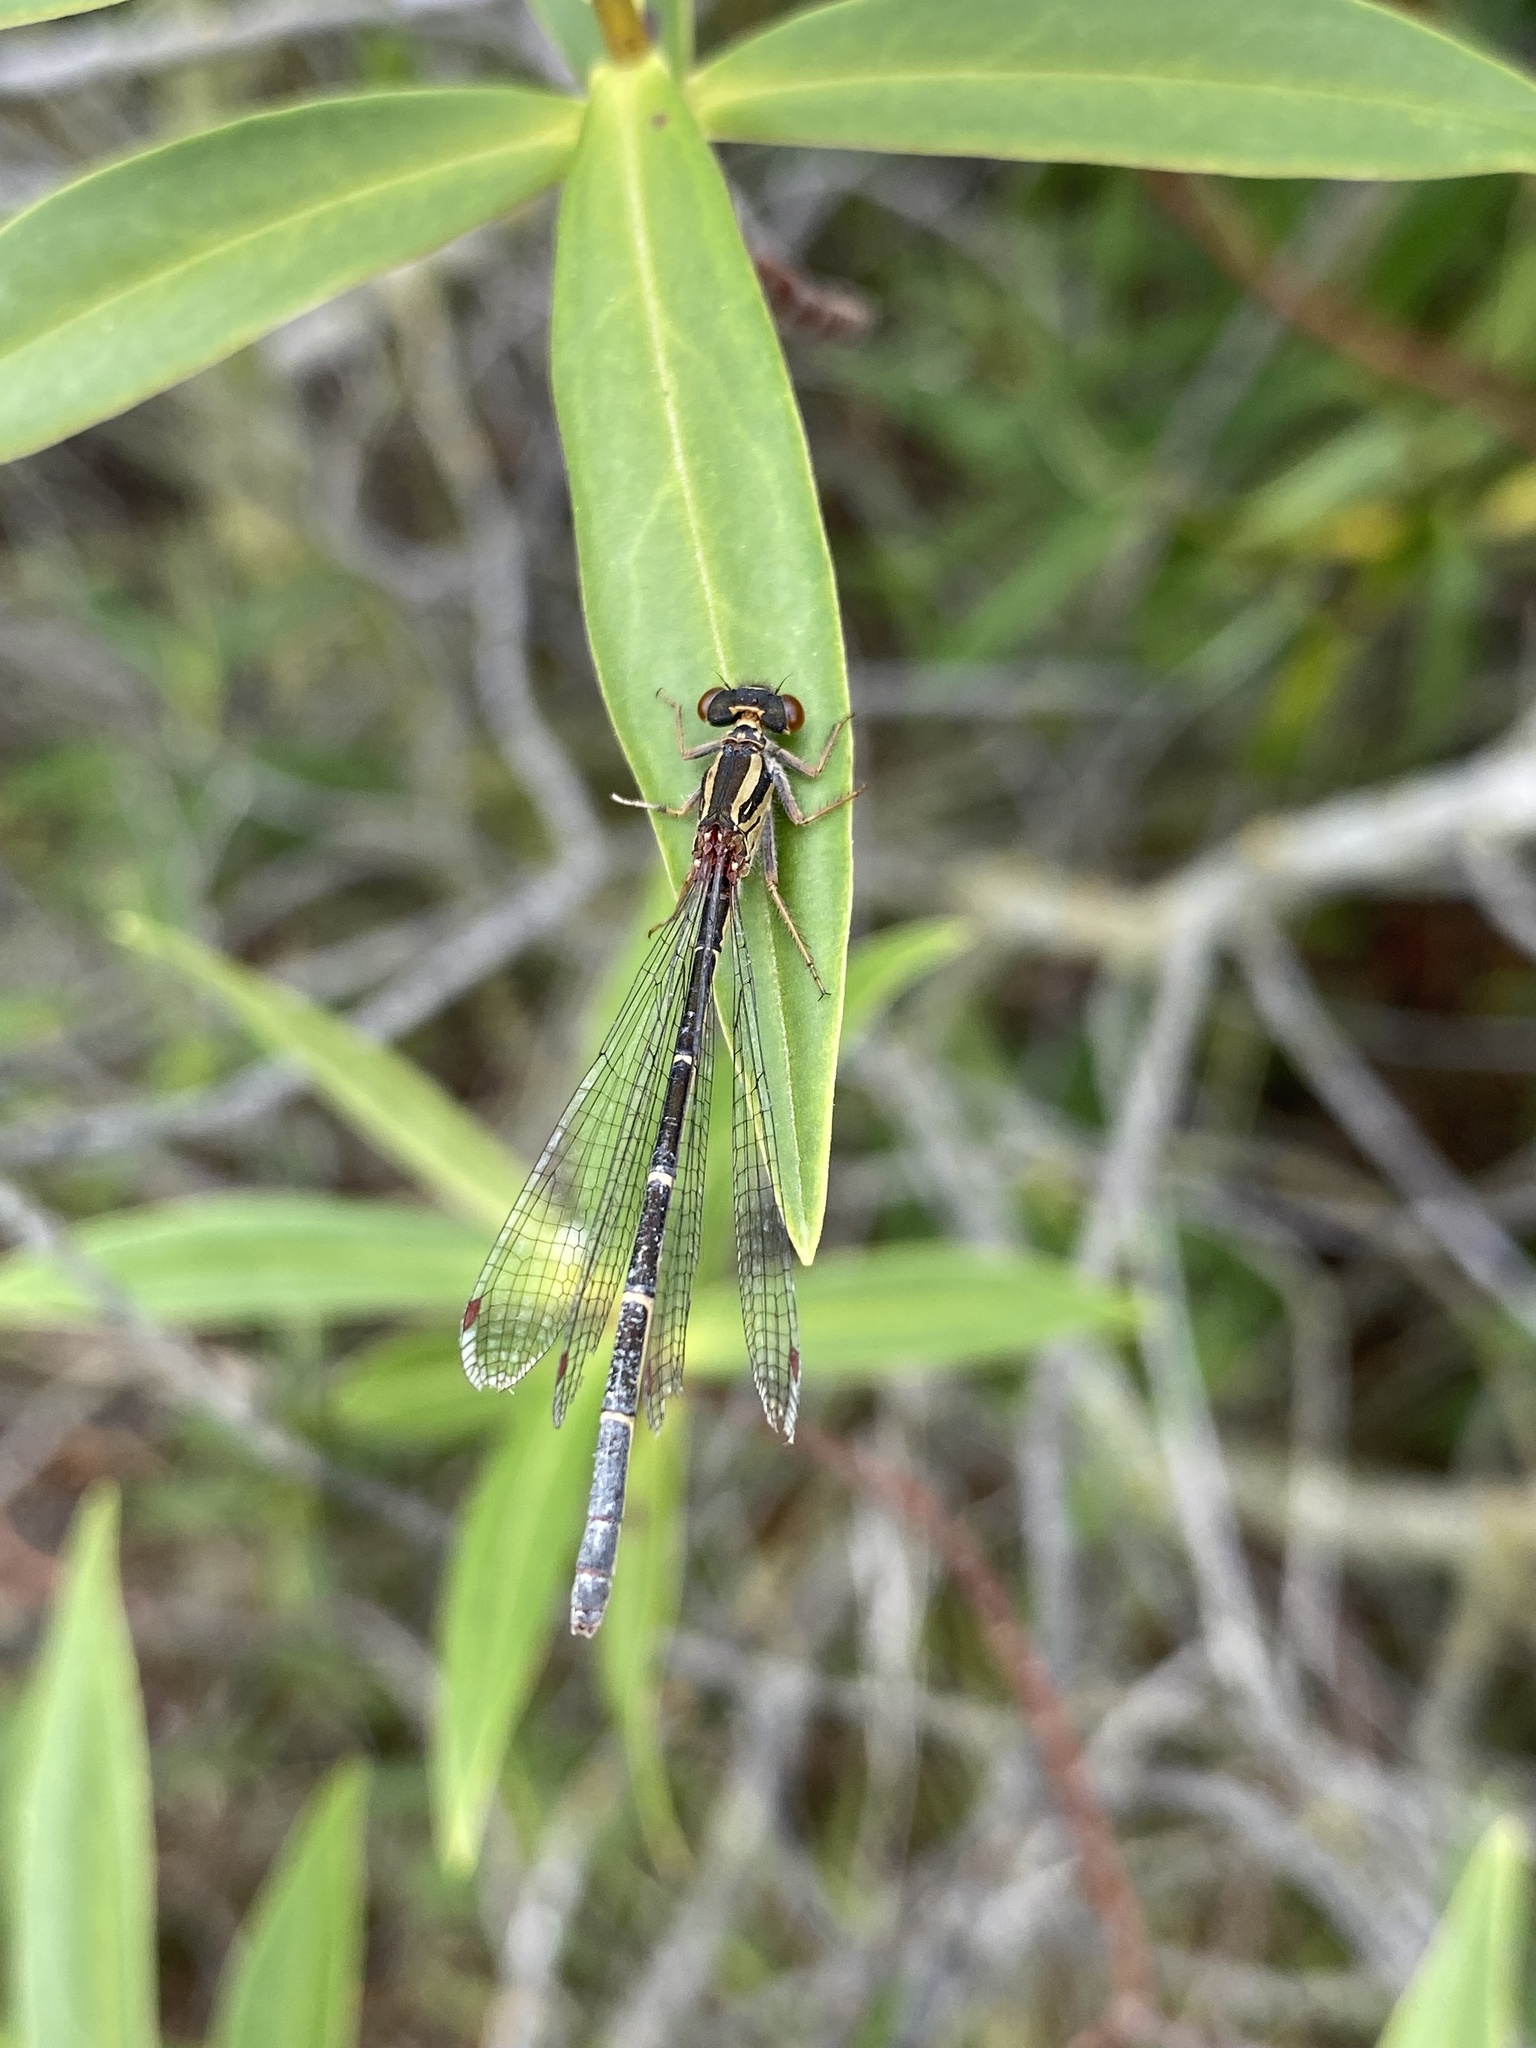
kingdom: Animalia
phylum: Arthropoda
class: Insecta
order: Odonata
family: Coenagrionidae
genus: Xanthocnemis
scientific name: Xanthocnemis zealandica
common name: Common redcoat damselfly
